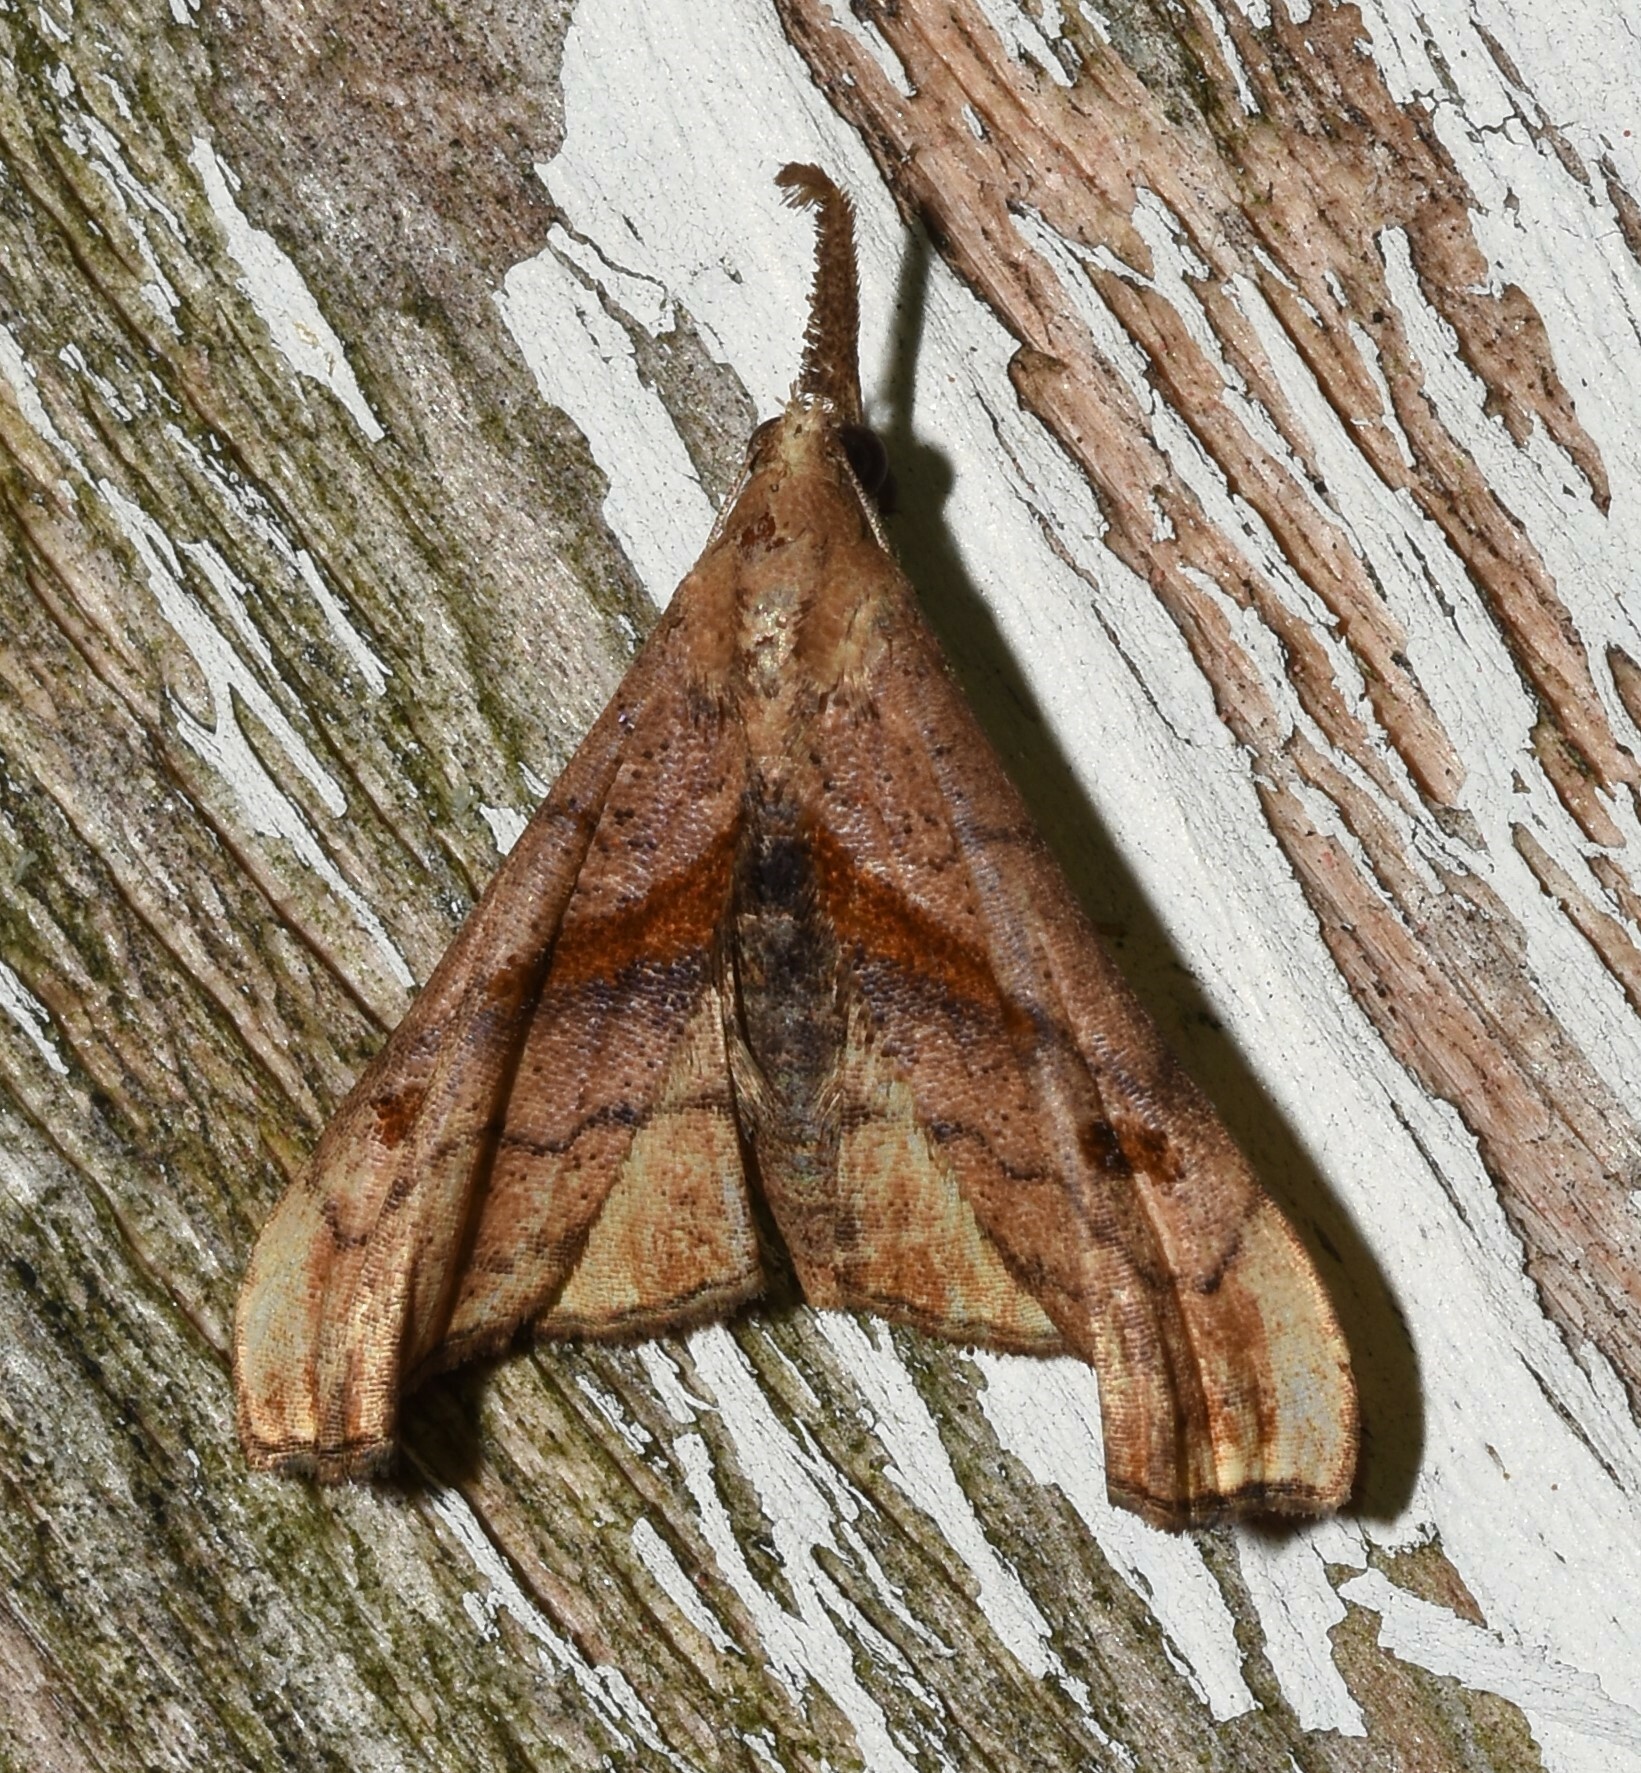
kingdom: Animalia
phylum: Arthropoda
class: Insecta
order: Lepidoptera
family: Erebidae
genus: Palthis
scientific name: Palthis angulalis
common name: Dark-spotted palthis moth
